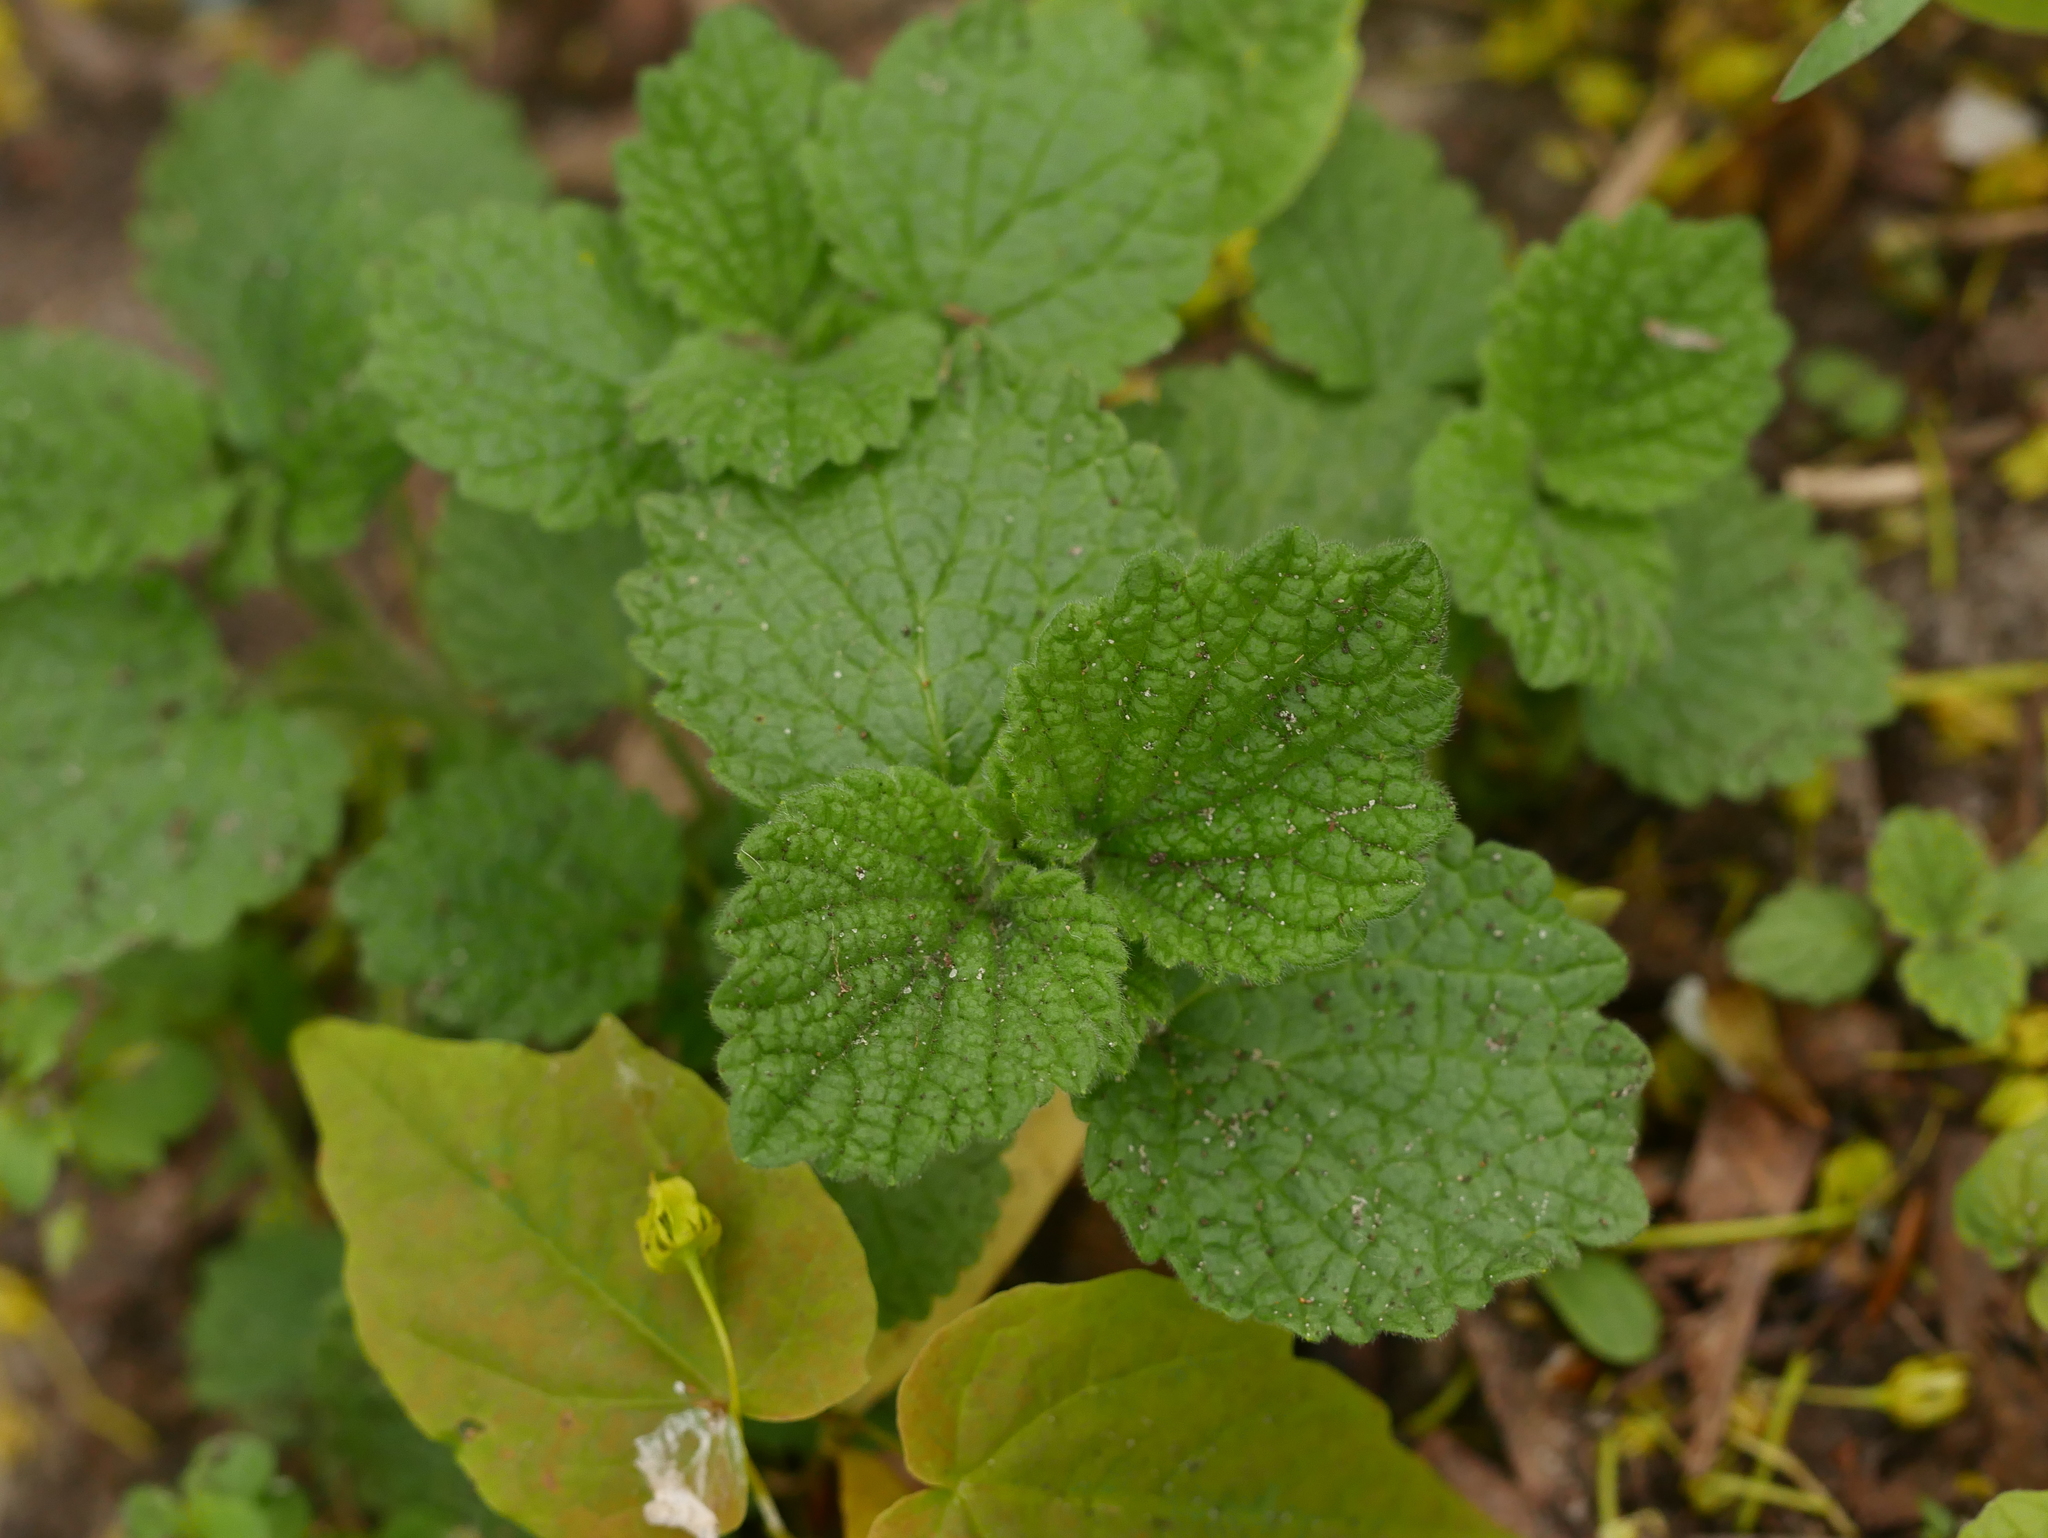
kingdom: Plantae
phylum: Tracheophyta
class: Magnoliopsida
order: Lamiales
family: Lamiaceae
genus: Ballota
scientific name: Ballota nigra
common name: Black horehound
